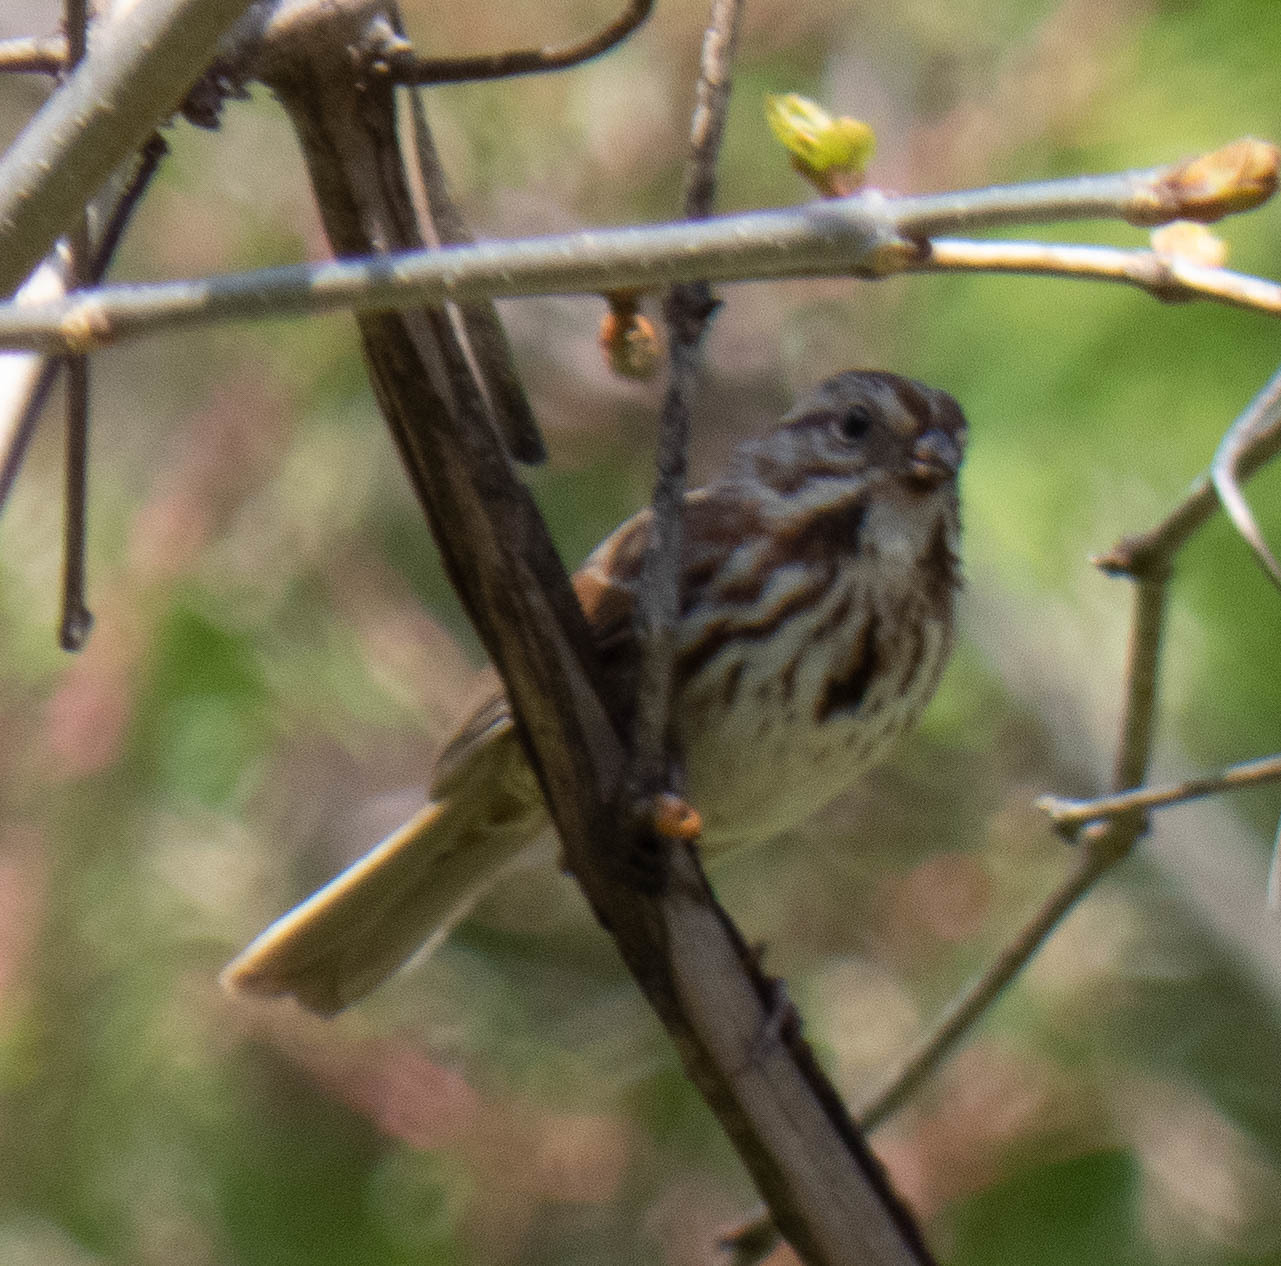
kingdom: Animalia
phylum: Chordata
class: Aves
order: Passeriformes
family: Passerellidae
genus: Melospiza
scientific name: Melospiza melodia
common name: Song sparrow
